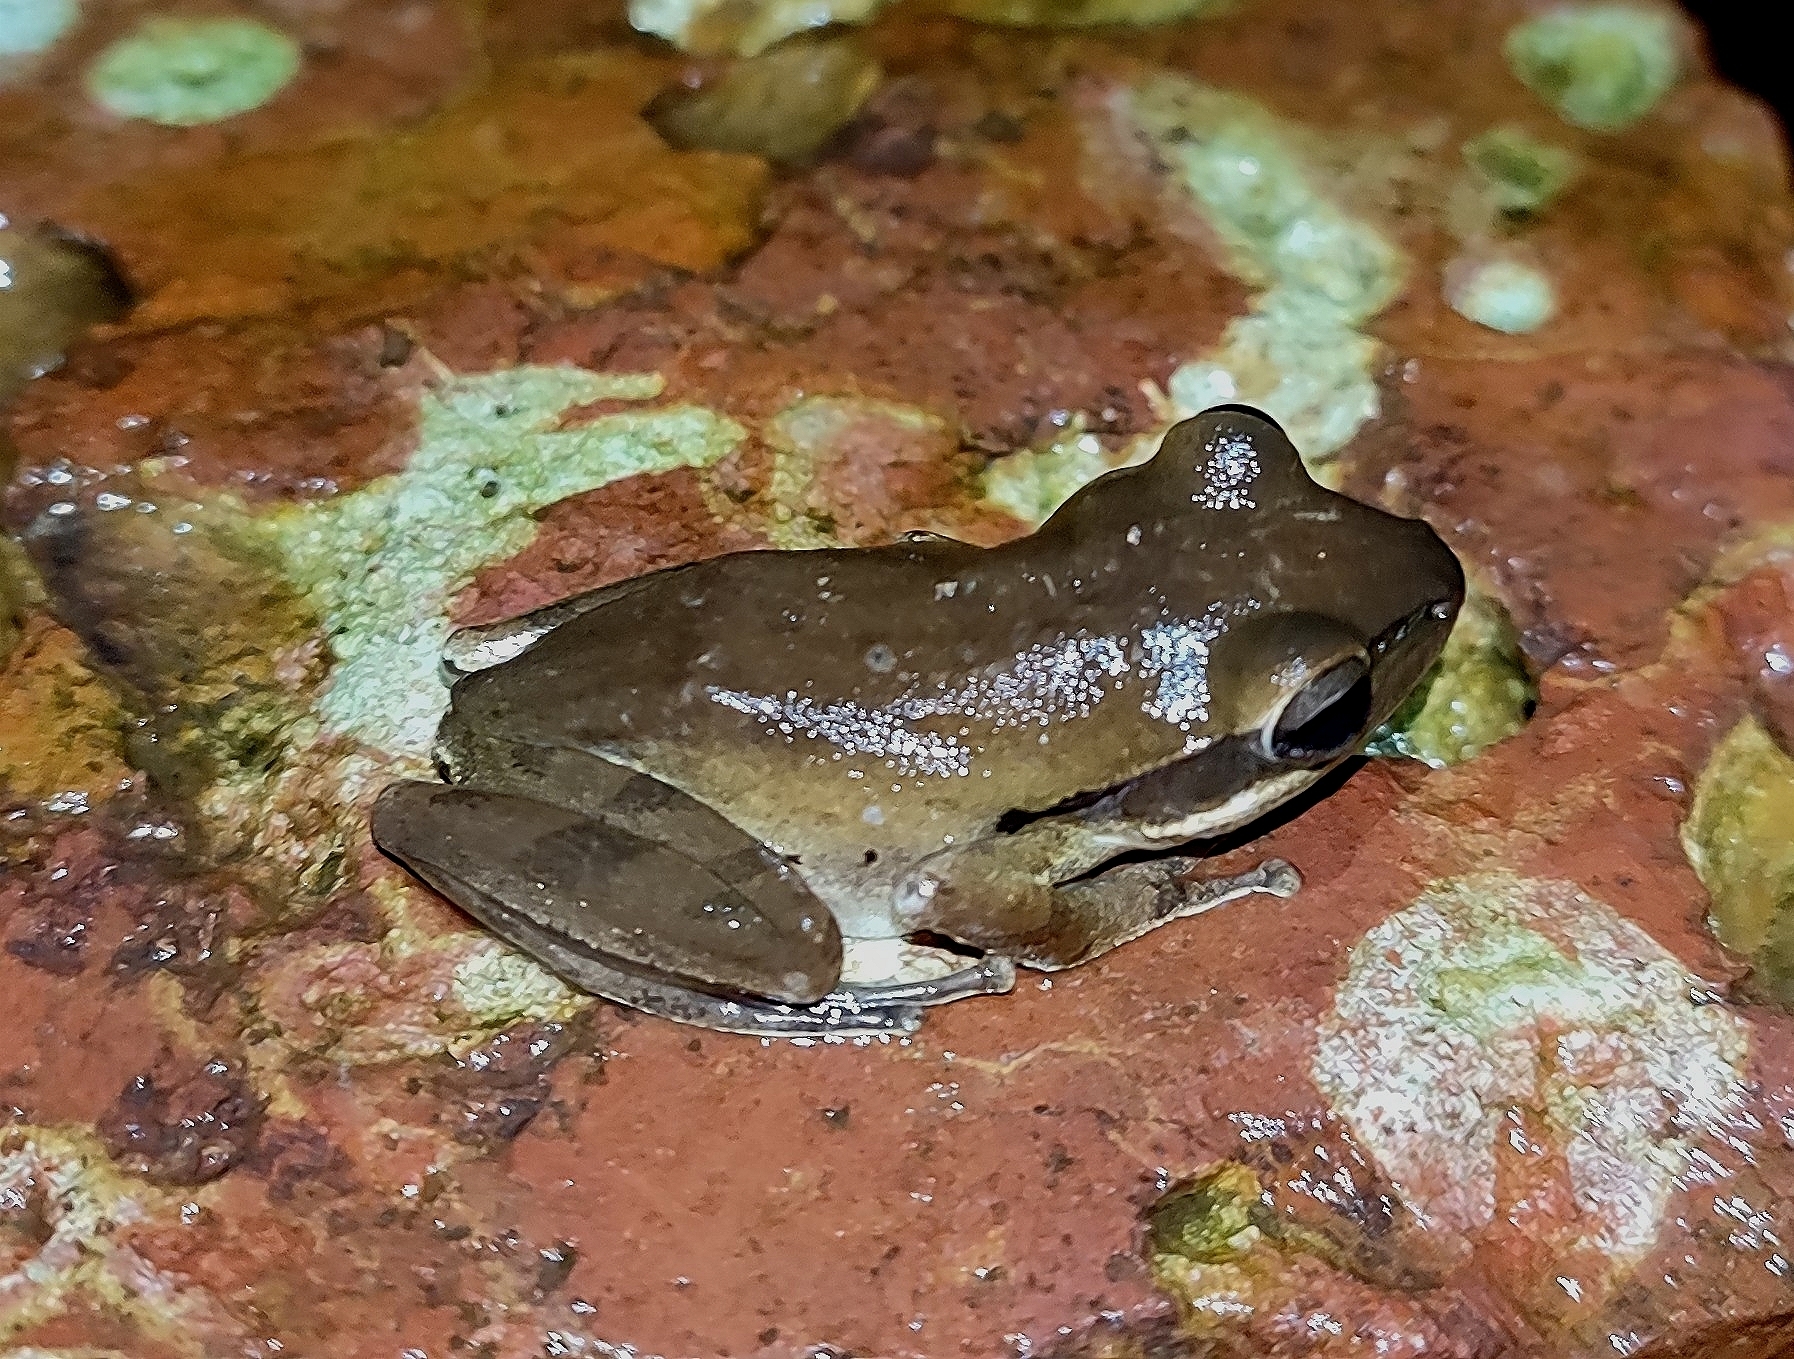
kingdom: Animalia
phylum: Chordata
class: Amphibia
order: Anura
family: Rhacophoridae
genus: Polypedates
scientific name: Polypedates maculatus
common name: Himalayan tree frog
